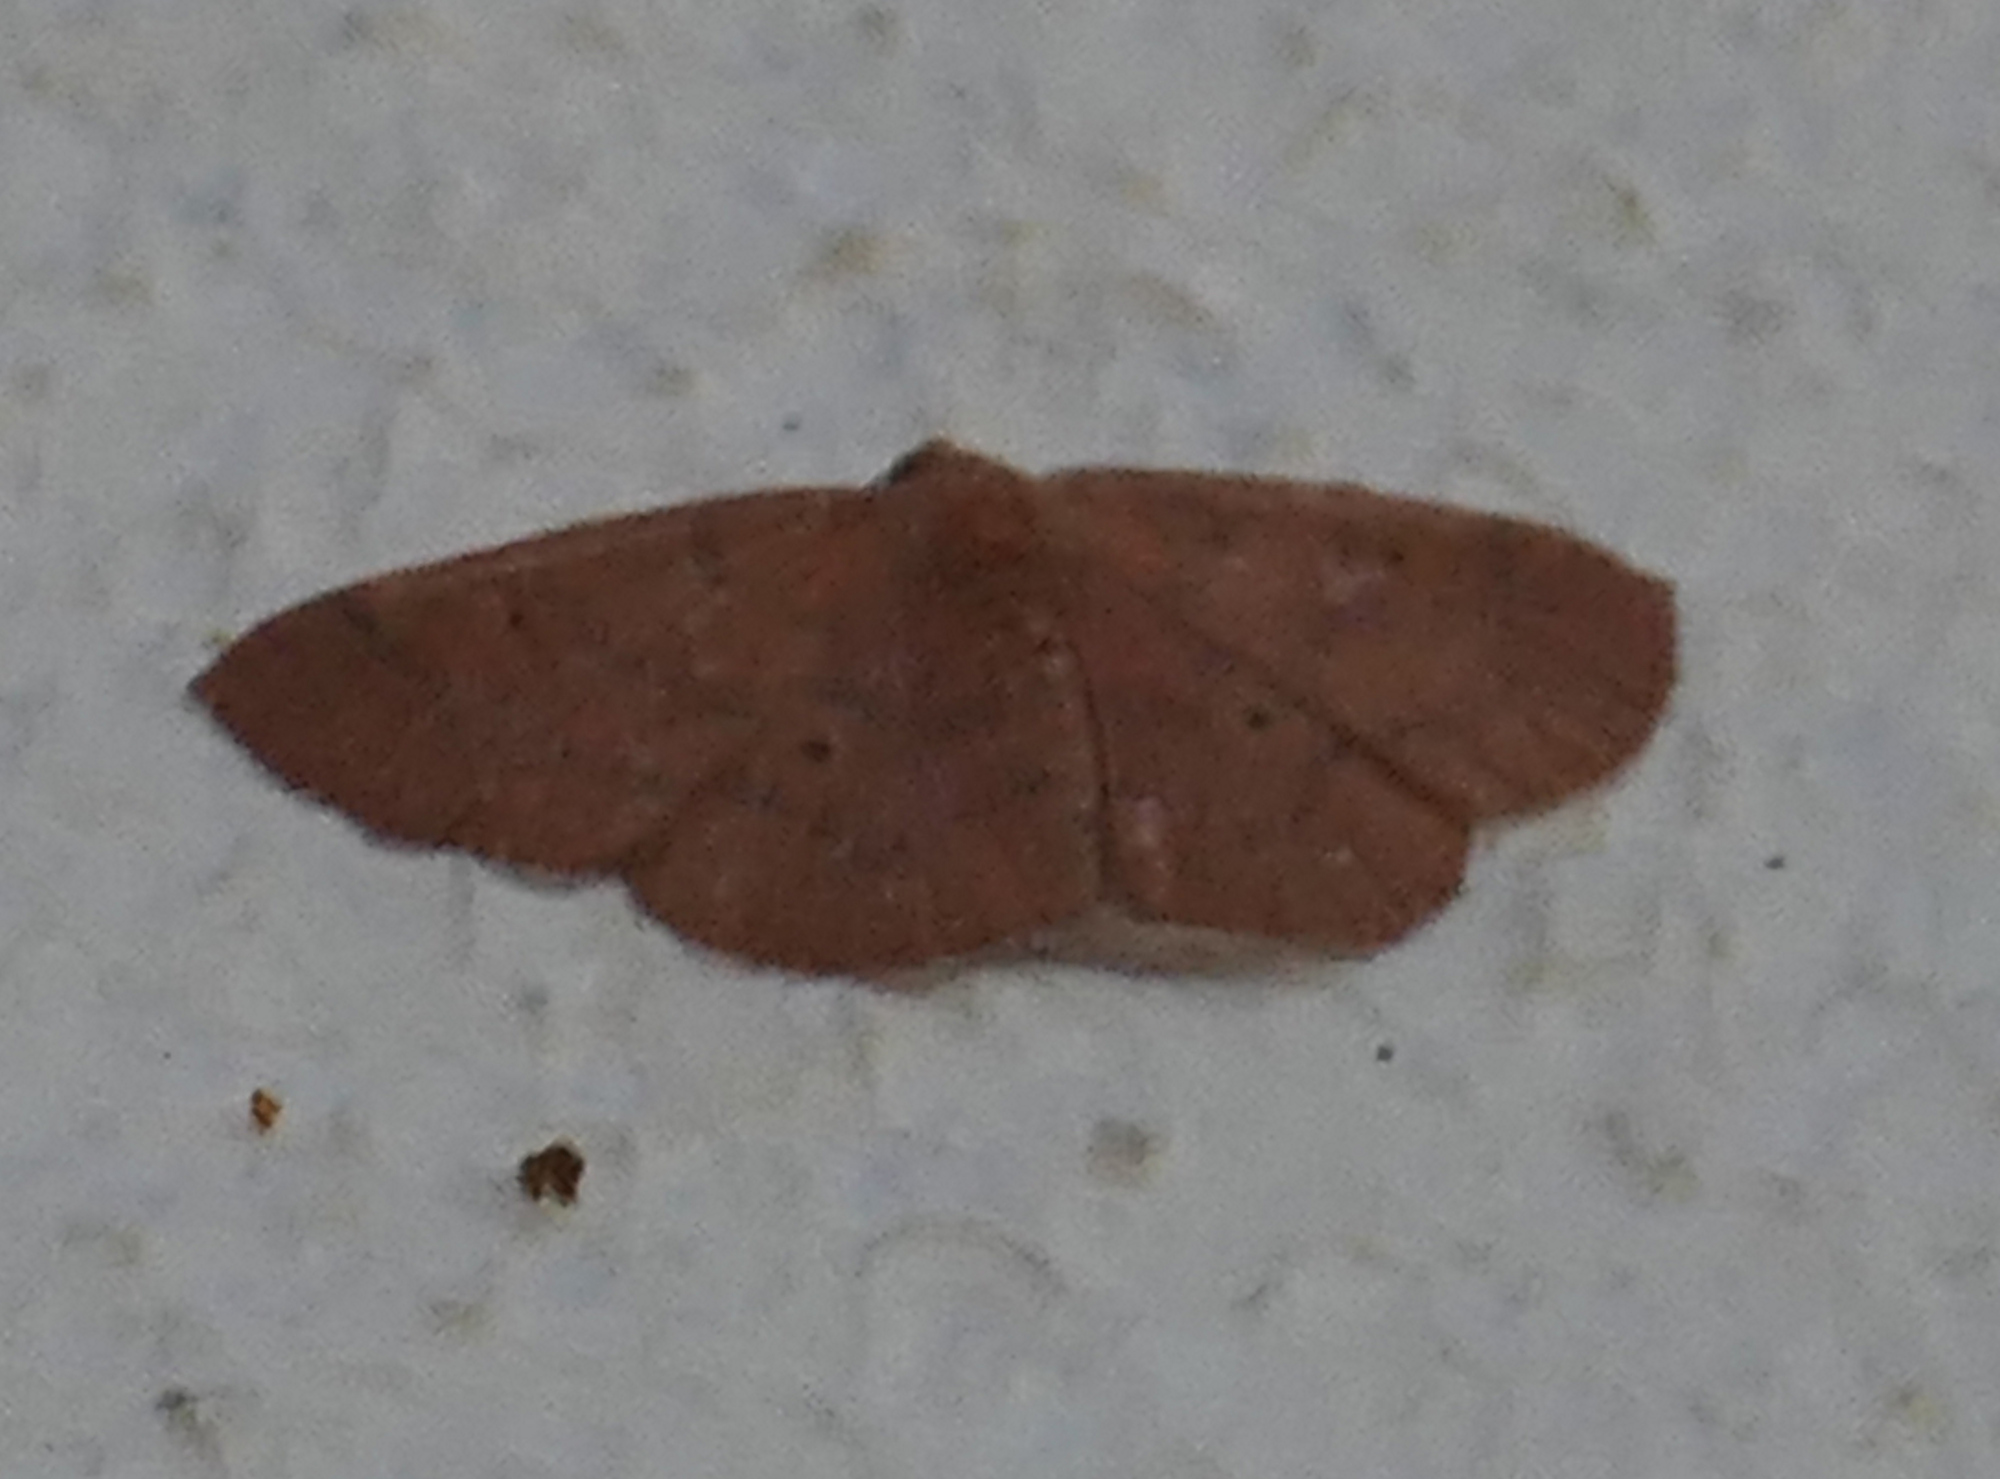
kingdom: Animalia
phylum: Arthropoda
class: Insecta
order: Lepidoptera
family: Geometridae
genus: Ilexia
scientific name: Ilexia intractata
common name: Black-dotted ruddy moth
